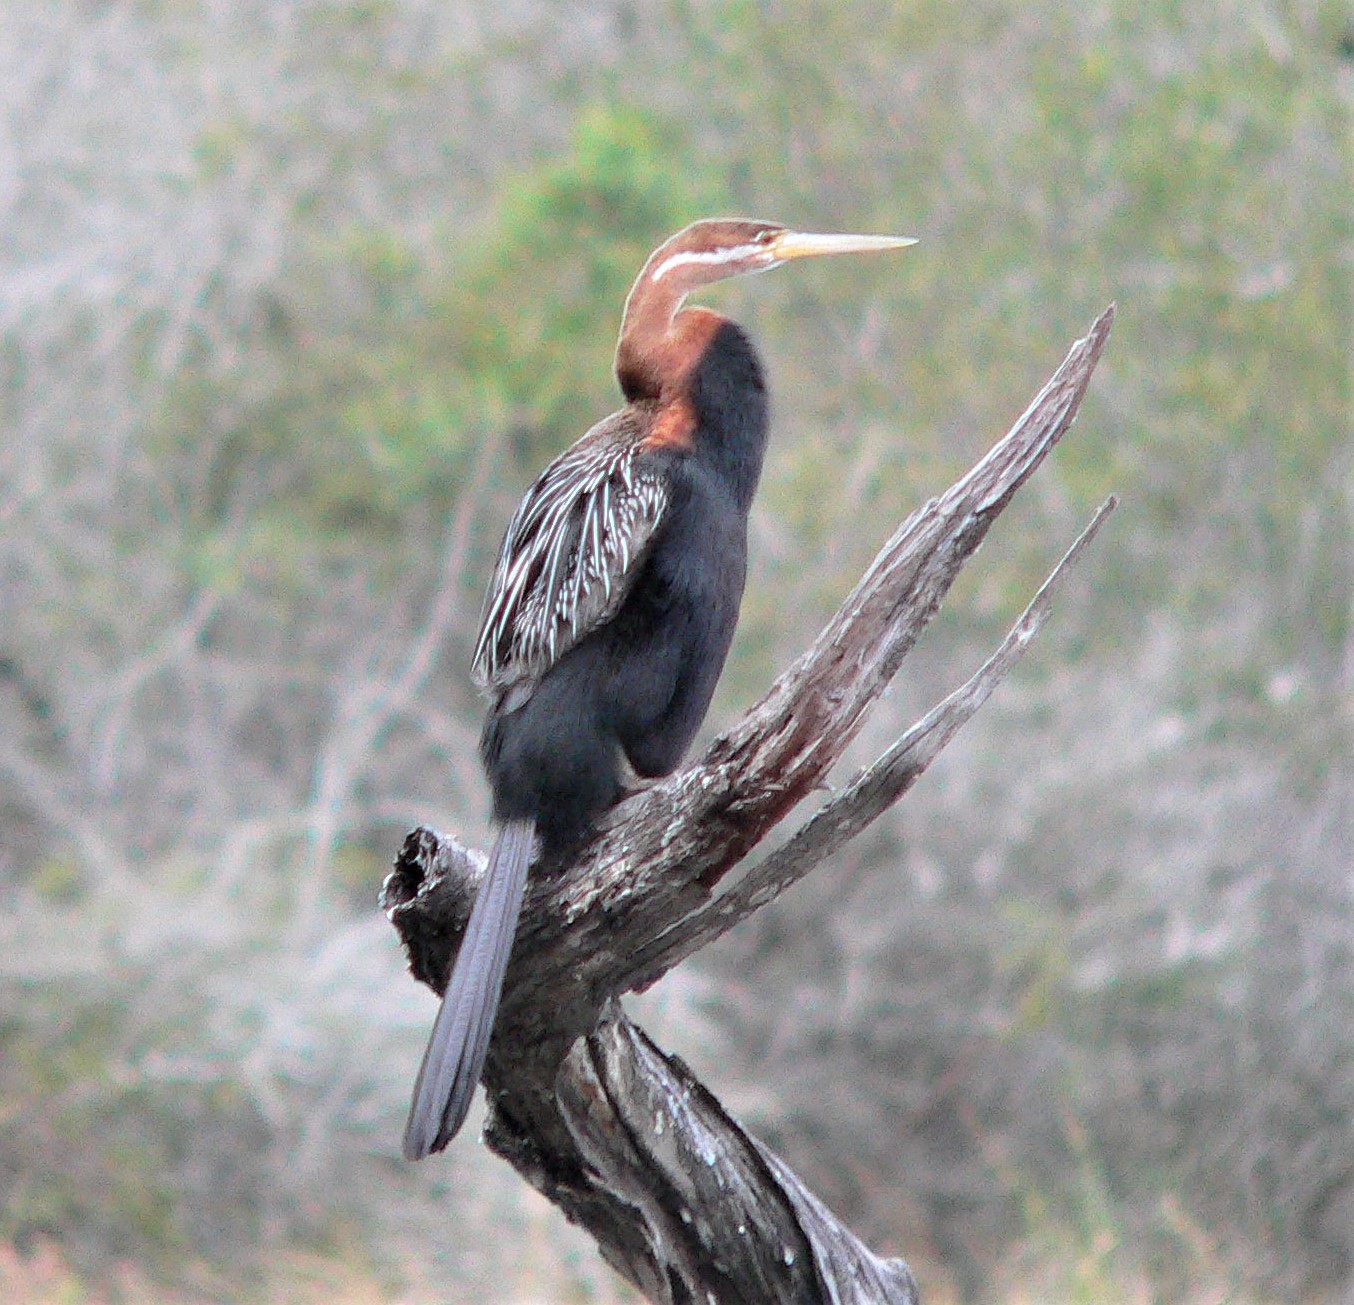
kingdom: Animalia
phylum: Chordata
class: Aves
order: Suliformes
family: Anhingidae
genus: Anhinga
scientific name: Anhinga rufa
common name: African darter
